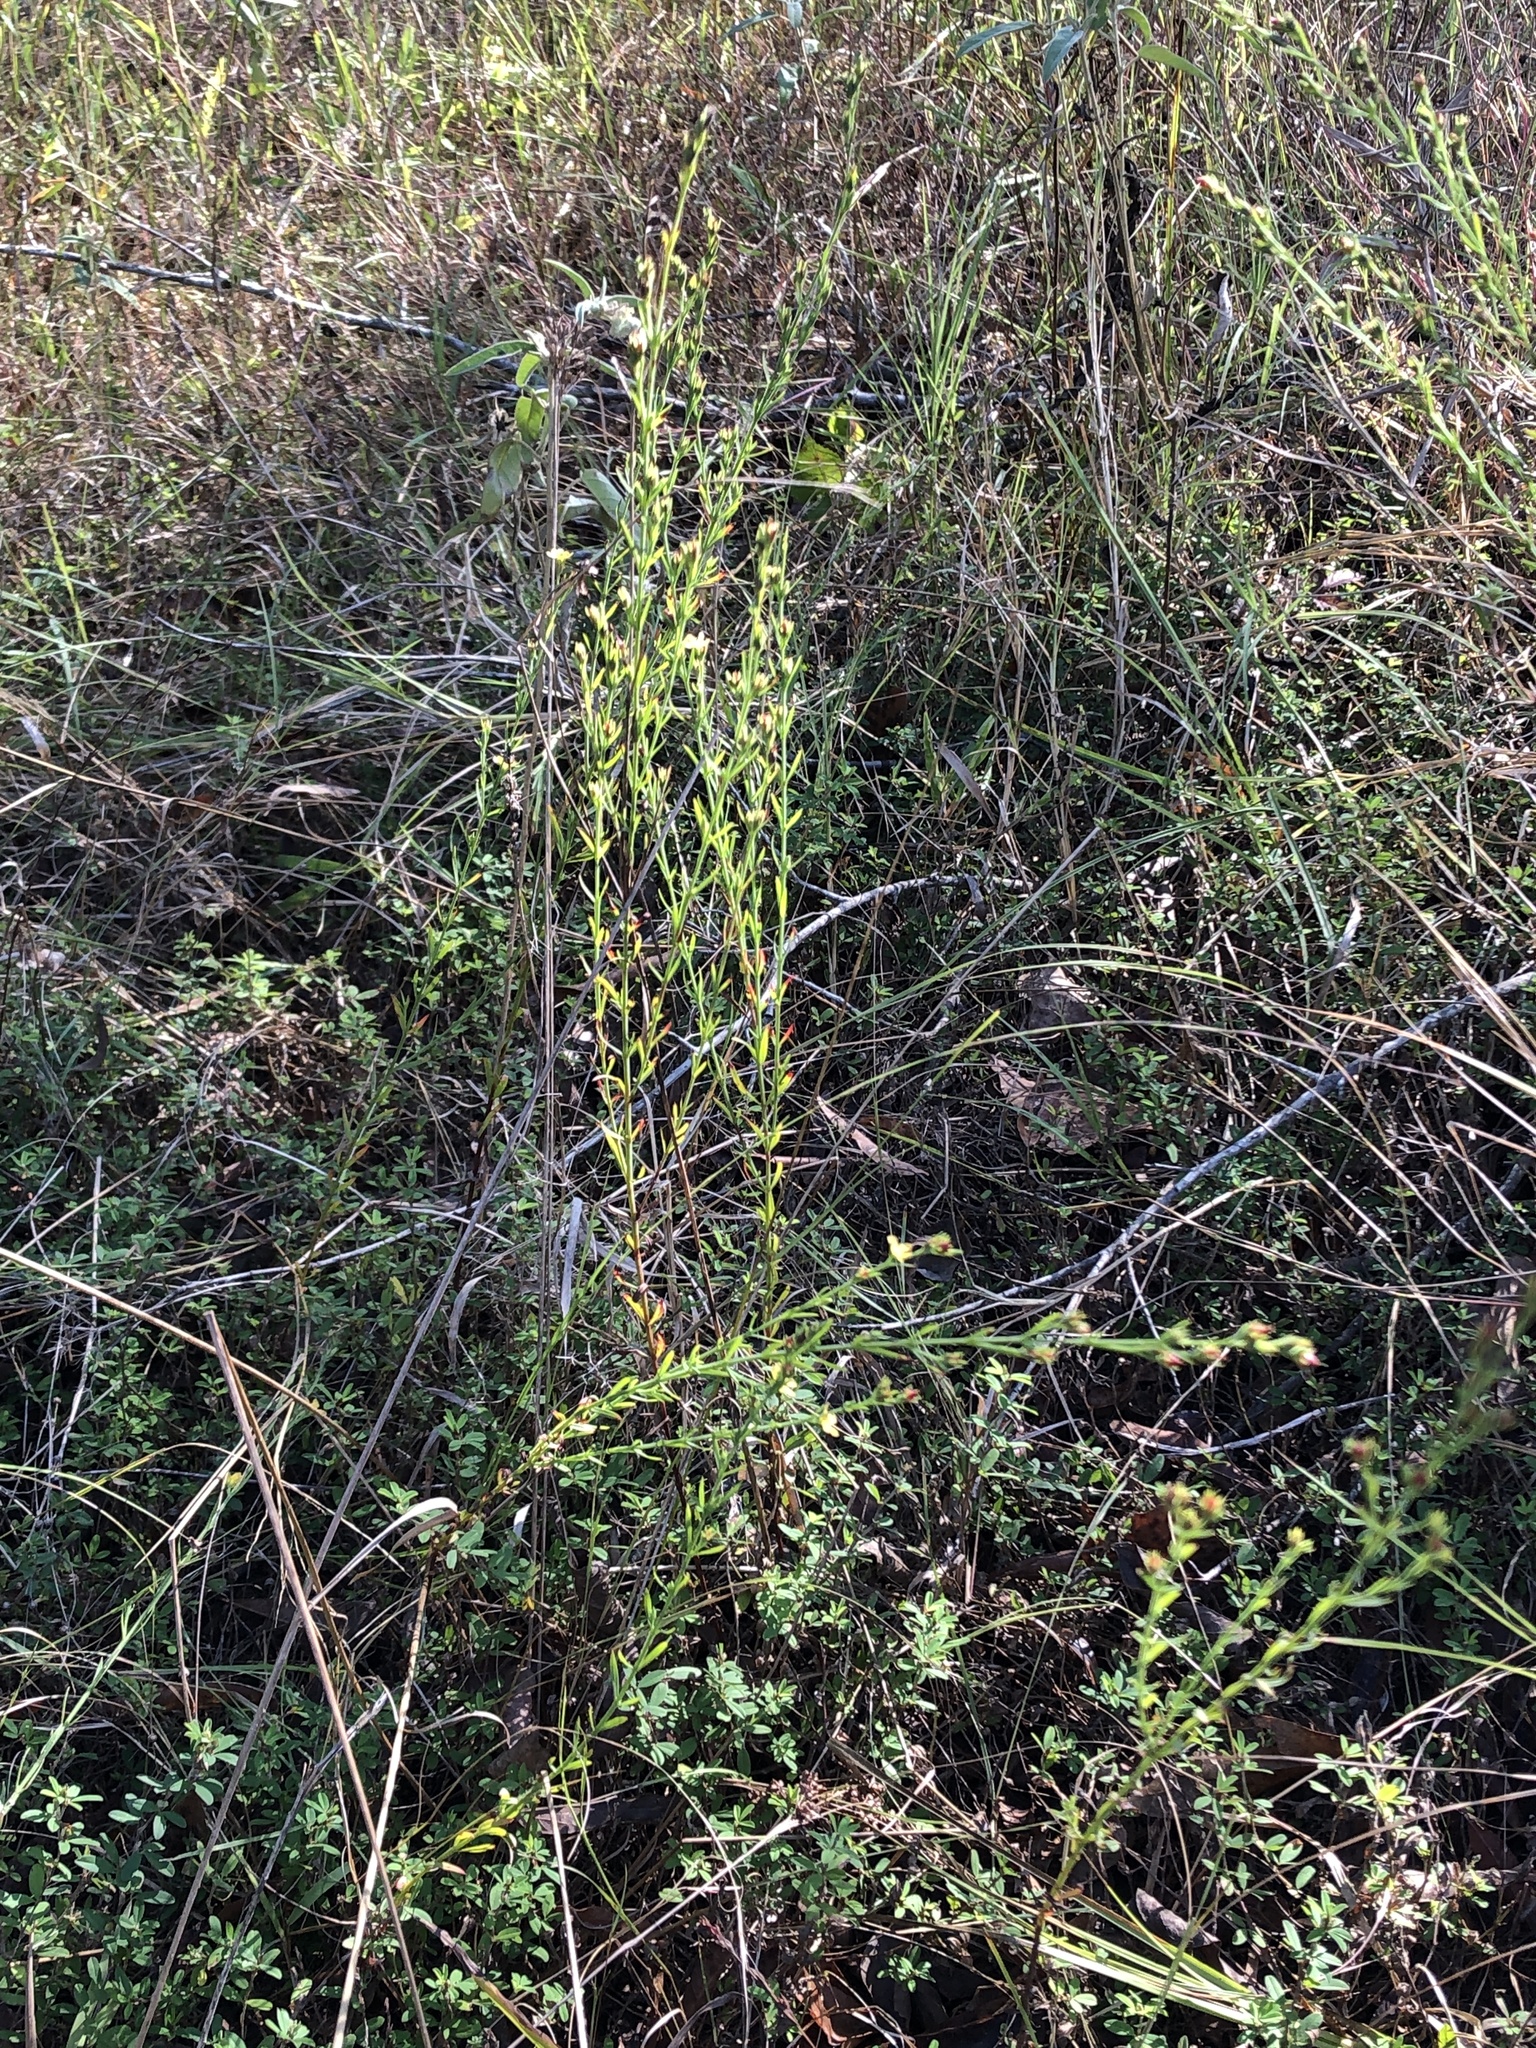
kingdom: Plantae
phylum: Tracheophyta
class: Magnoliopsida
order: Malpighiales
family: Hypericaceae
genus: Hypericum
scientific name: Hypericum drummondii
